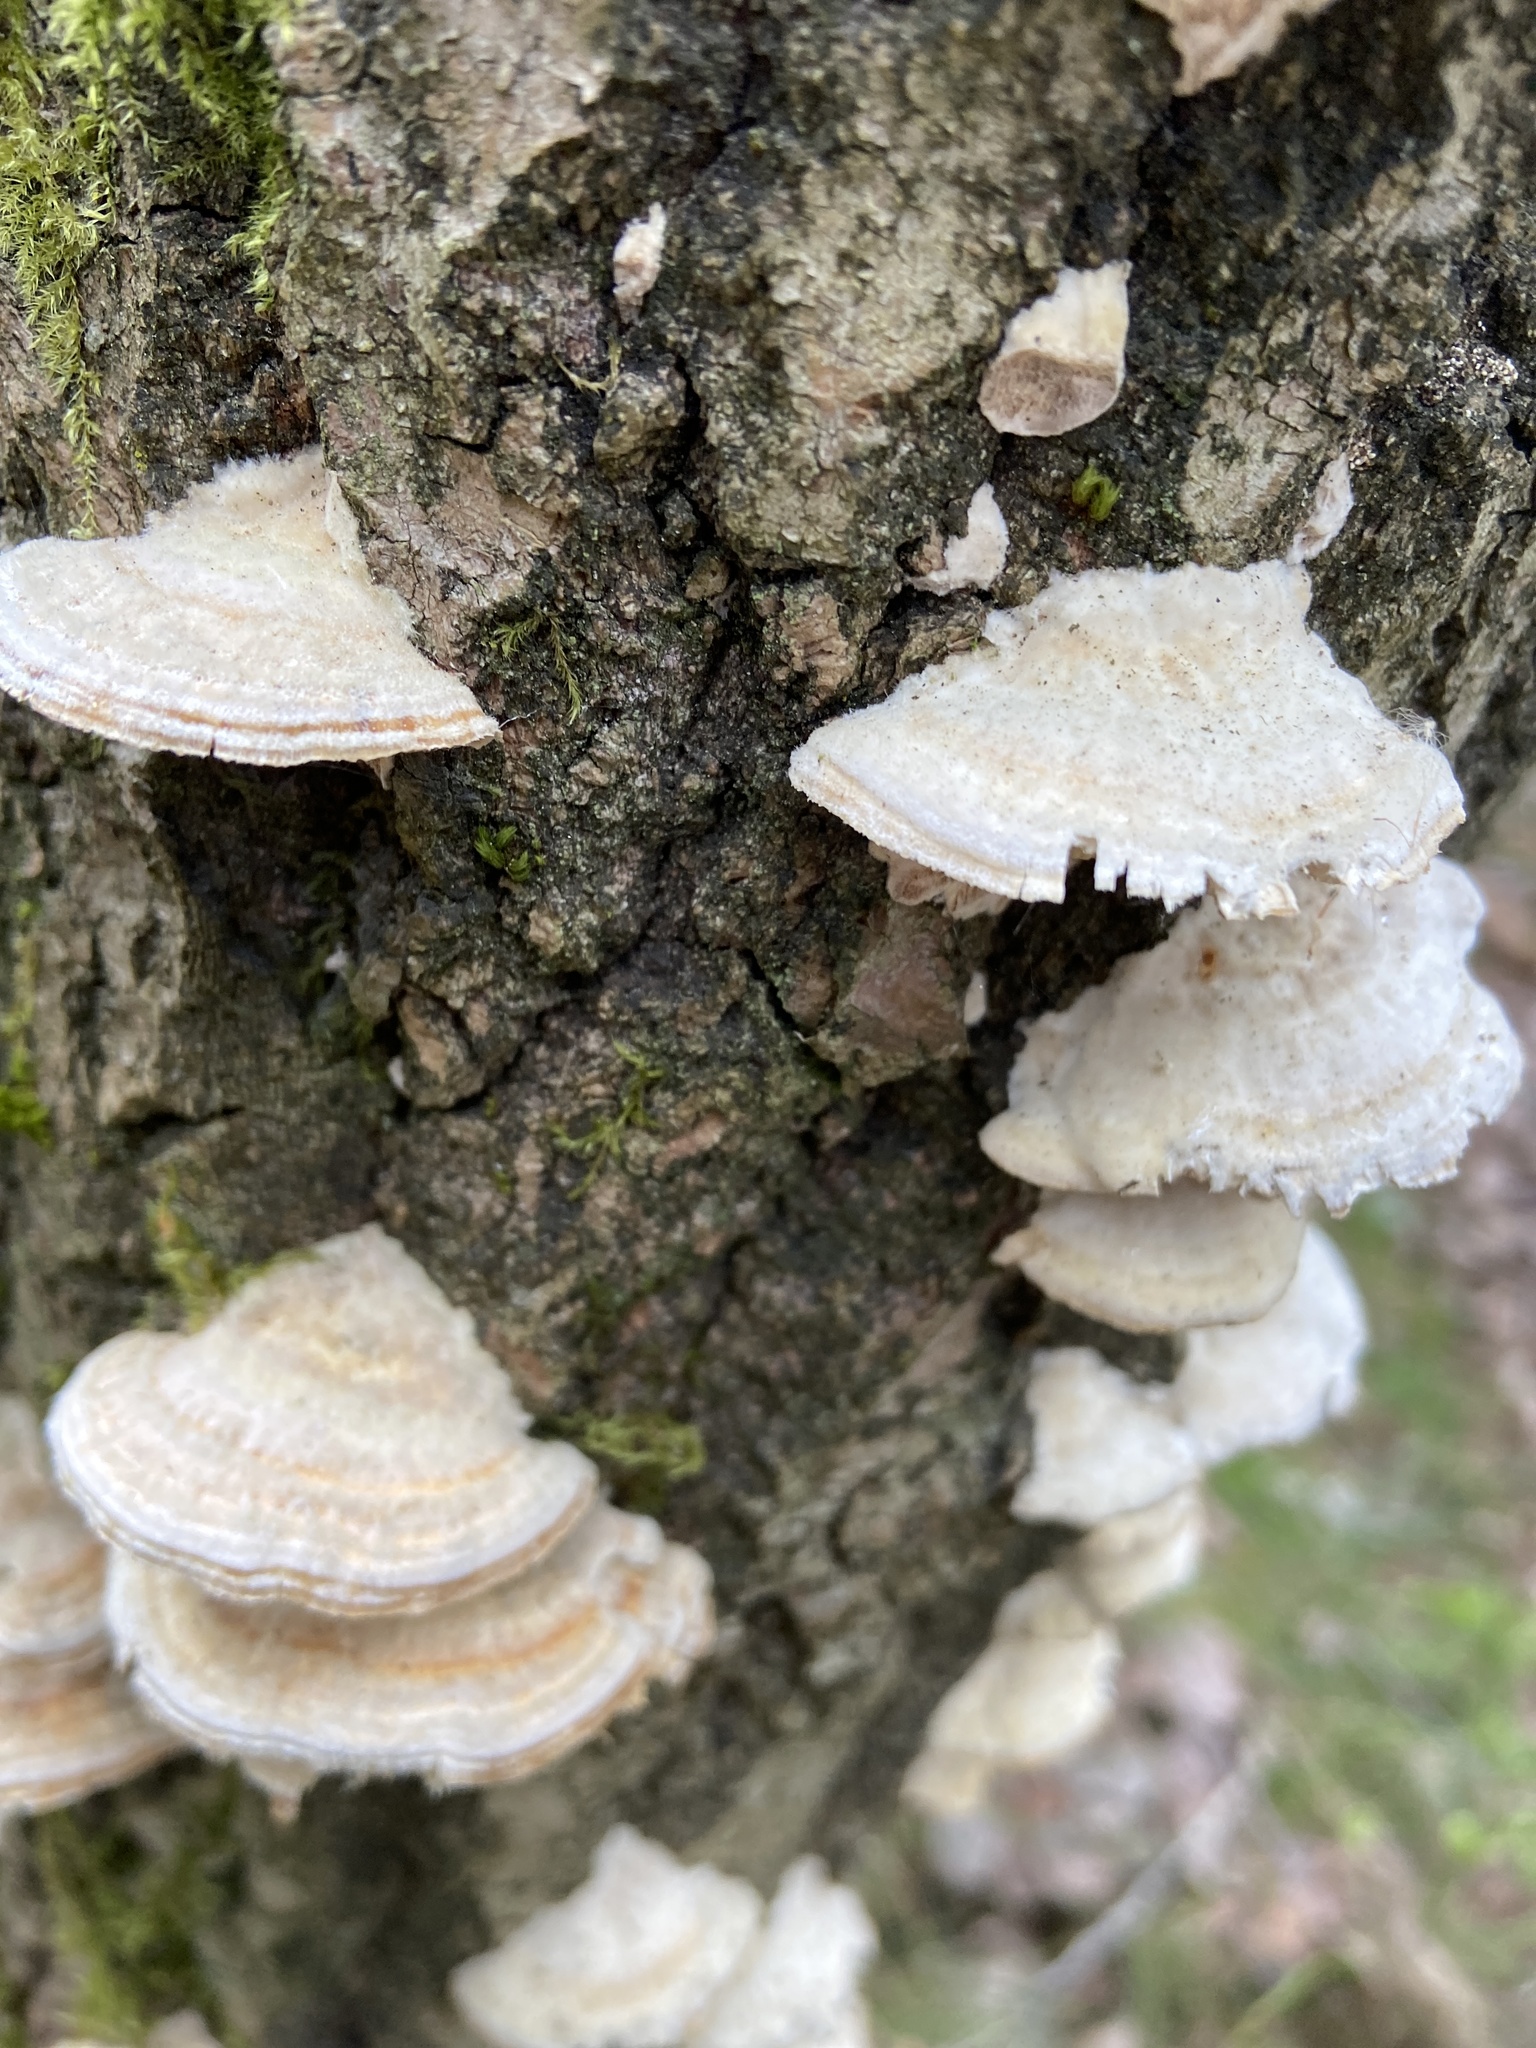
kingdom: Fungi
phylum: Basidiomycota
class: Agaricomycetes
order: Polyporales
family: Polyporaceae
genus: Trametes
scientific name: Trametes hirsuta
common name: Hairy bracket
